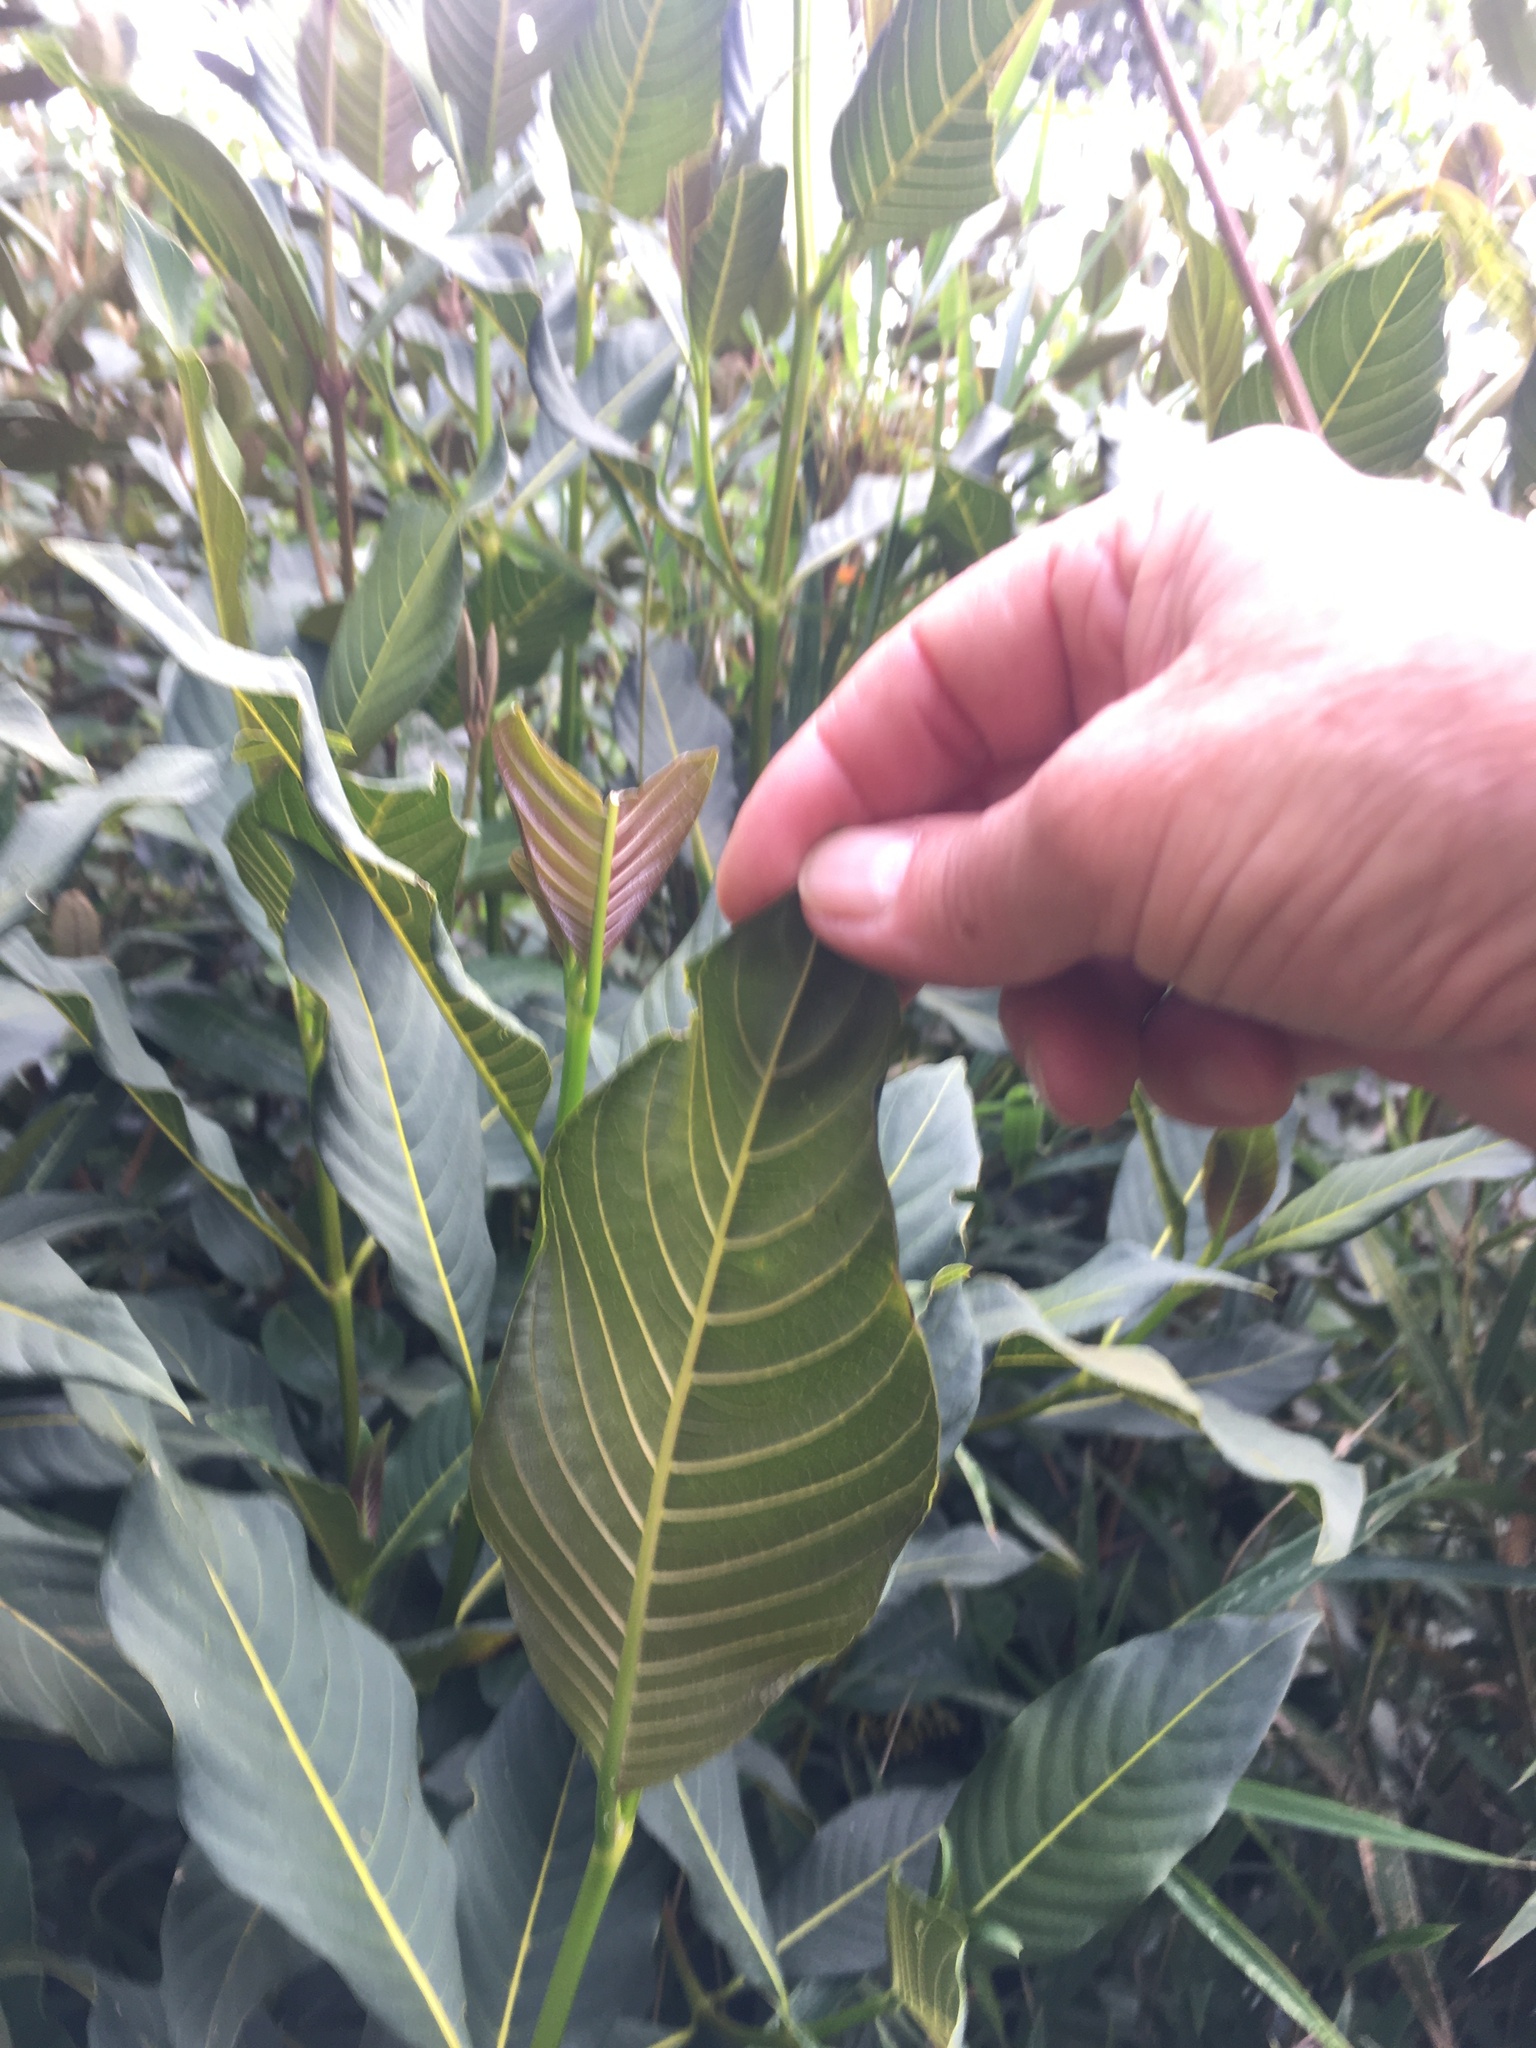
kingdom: Plantae
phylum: Tracheophyta
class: Magnoliopsida
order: Gentianales
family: Rubiaceae
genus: Palicourea
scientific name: Palicourea lineariflora
